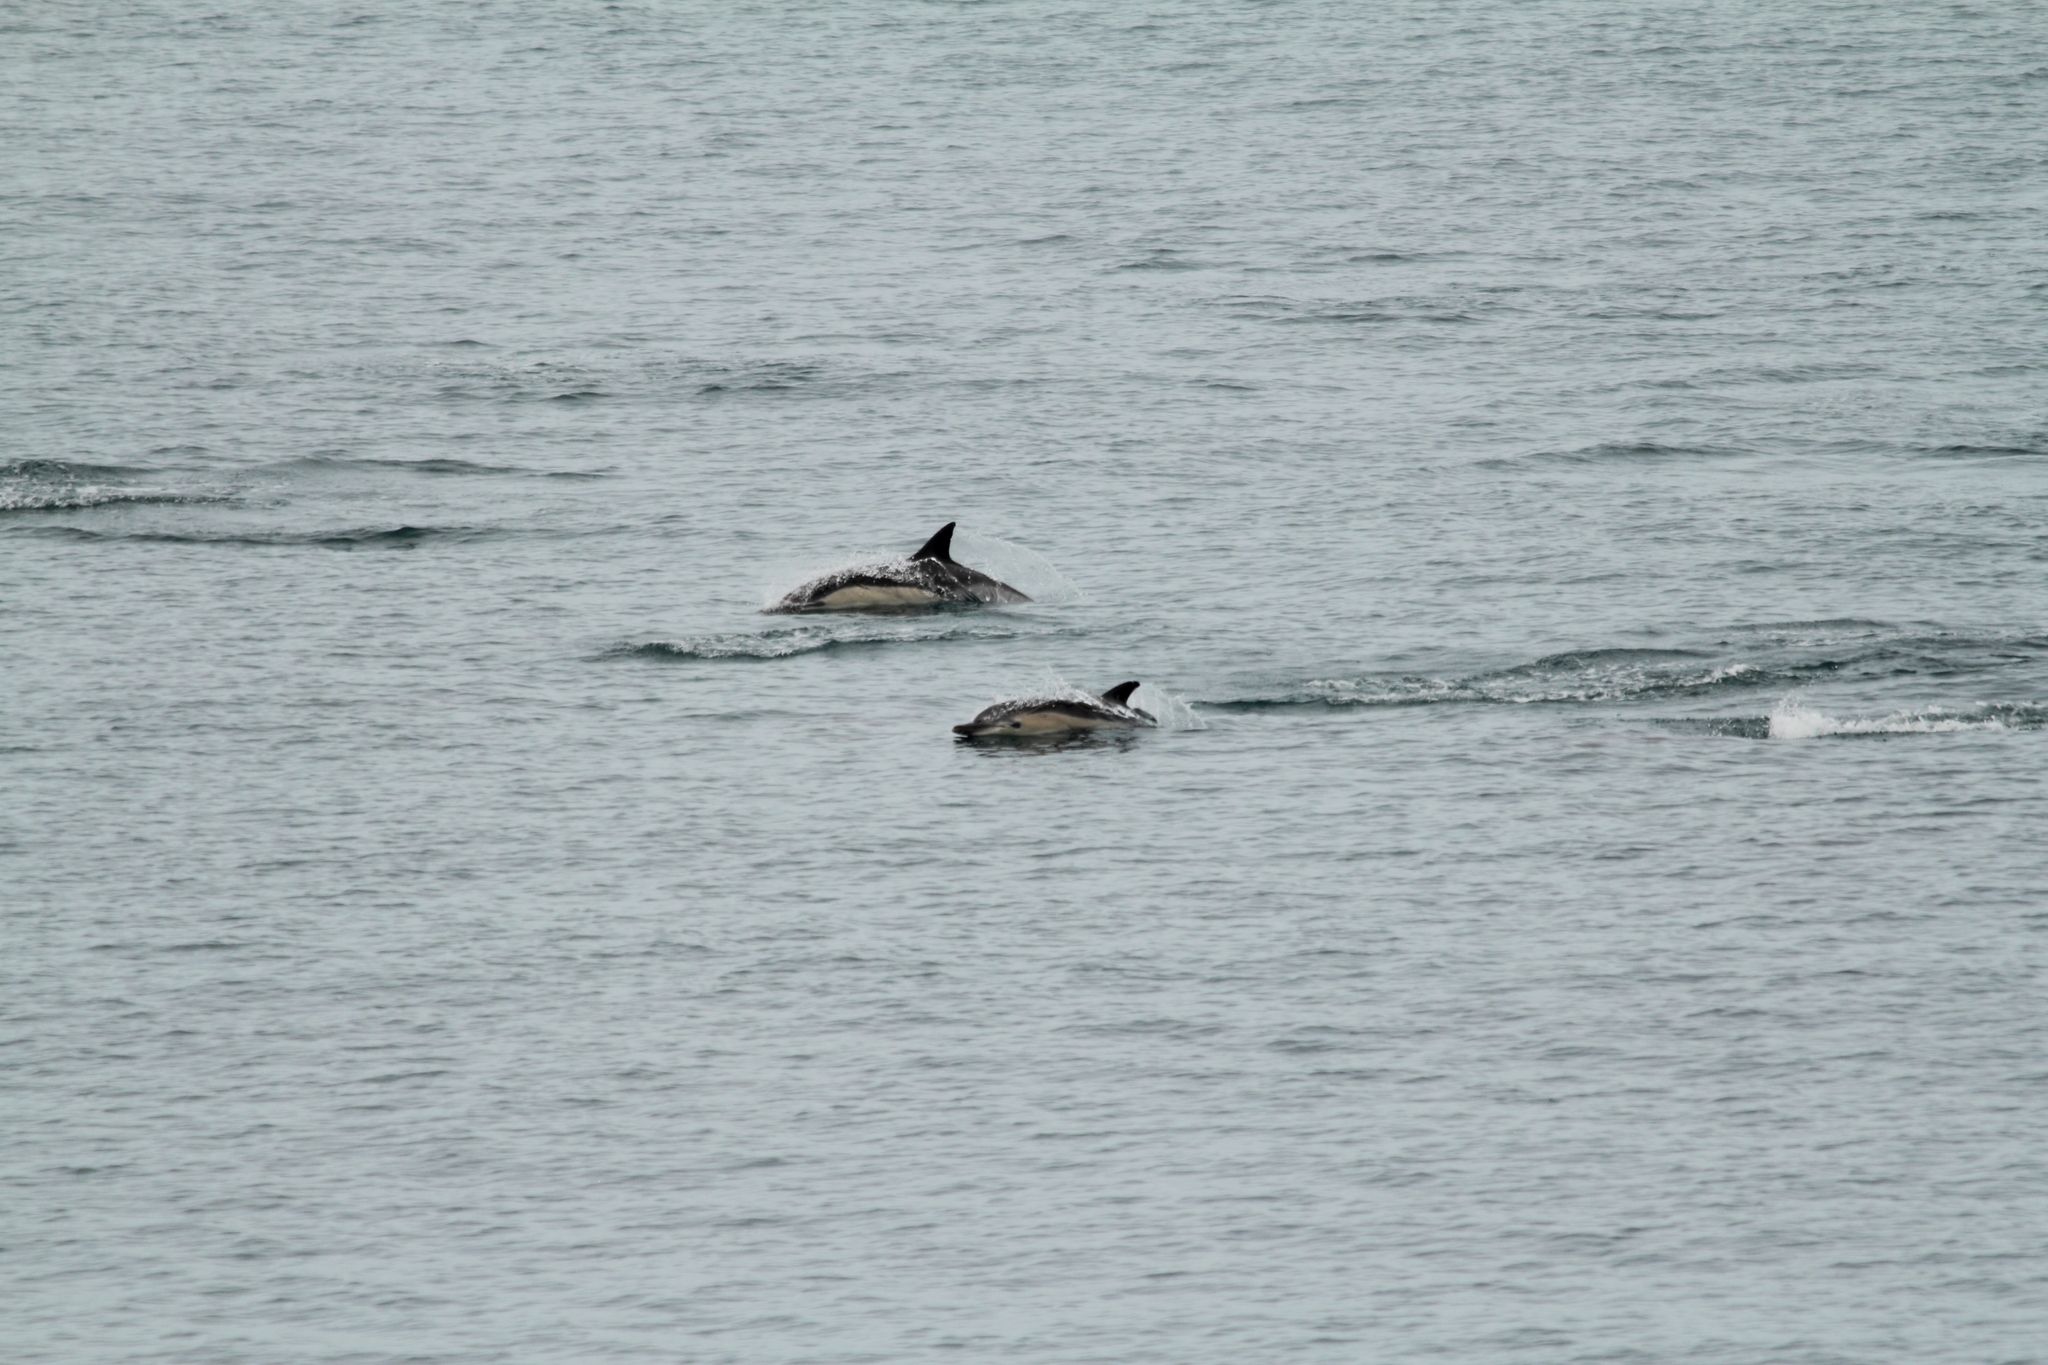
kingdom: Animalia
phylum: Chordata
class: Mammalia
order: Cetacea
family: Delphinidae
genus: Delphinus
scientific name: Delphinus delphis
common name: Common dolphin
